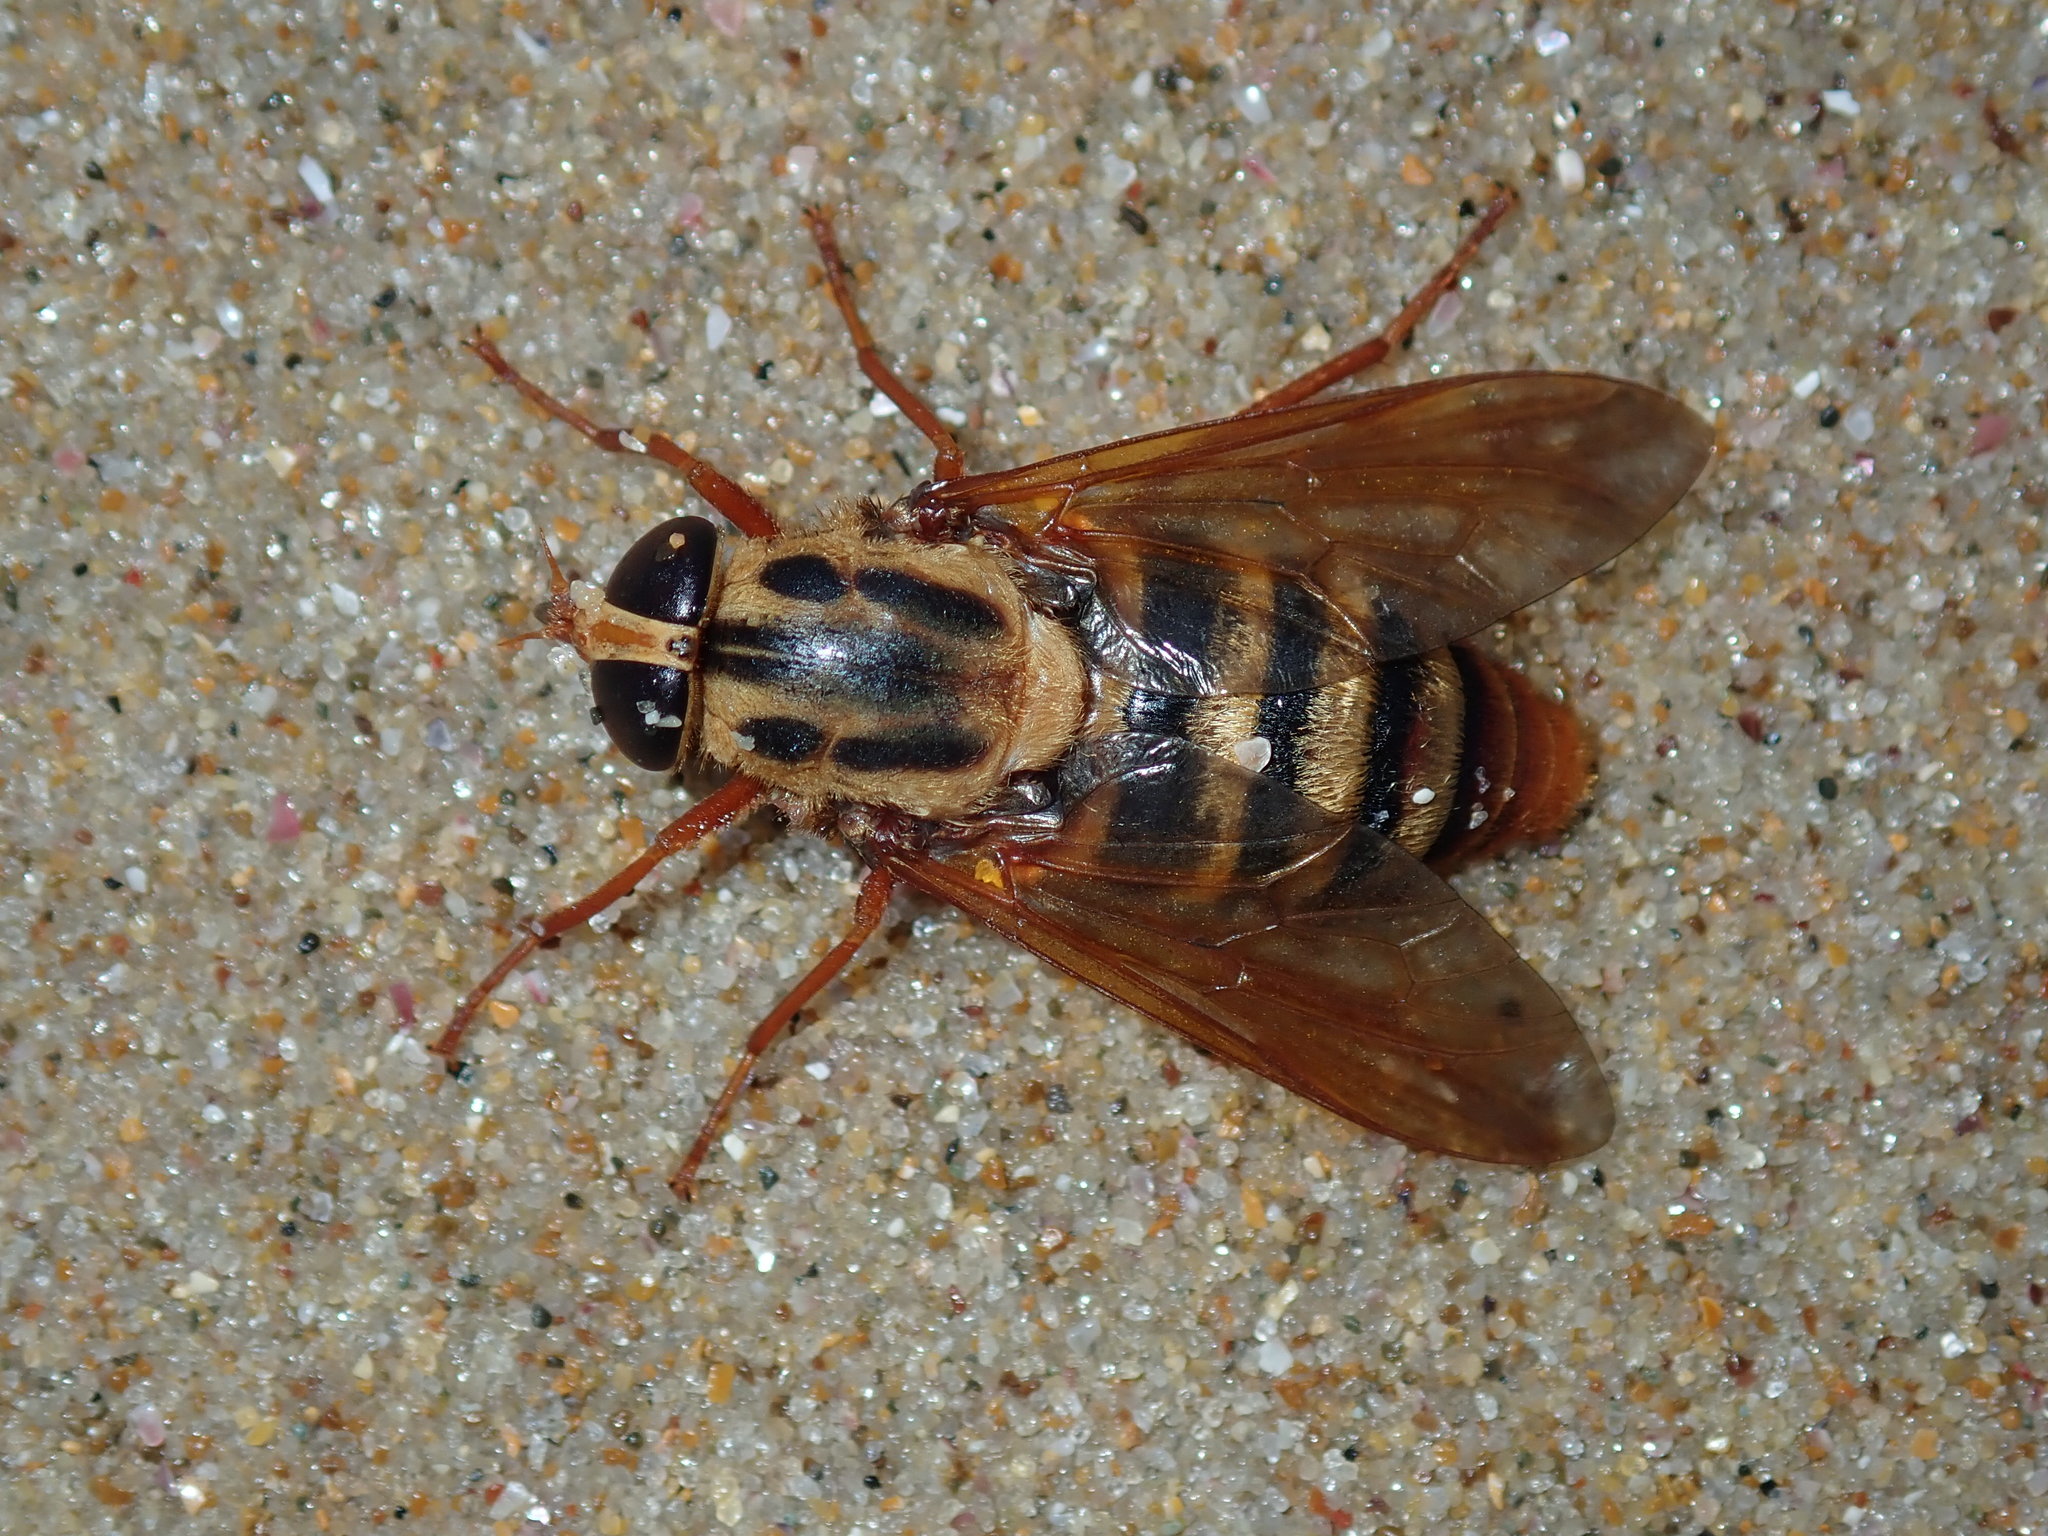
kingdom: Animalia
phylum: Arthropoda
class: Insecta
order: Diptera
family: Tabanidae
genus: Austroplex
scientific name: Austroplex chrysophilus
